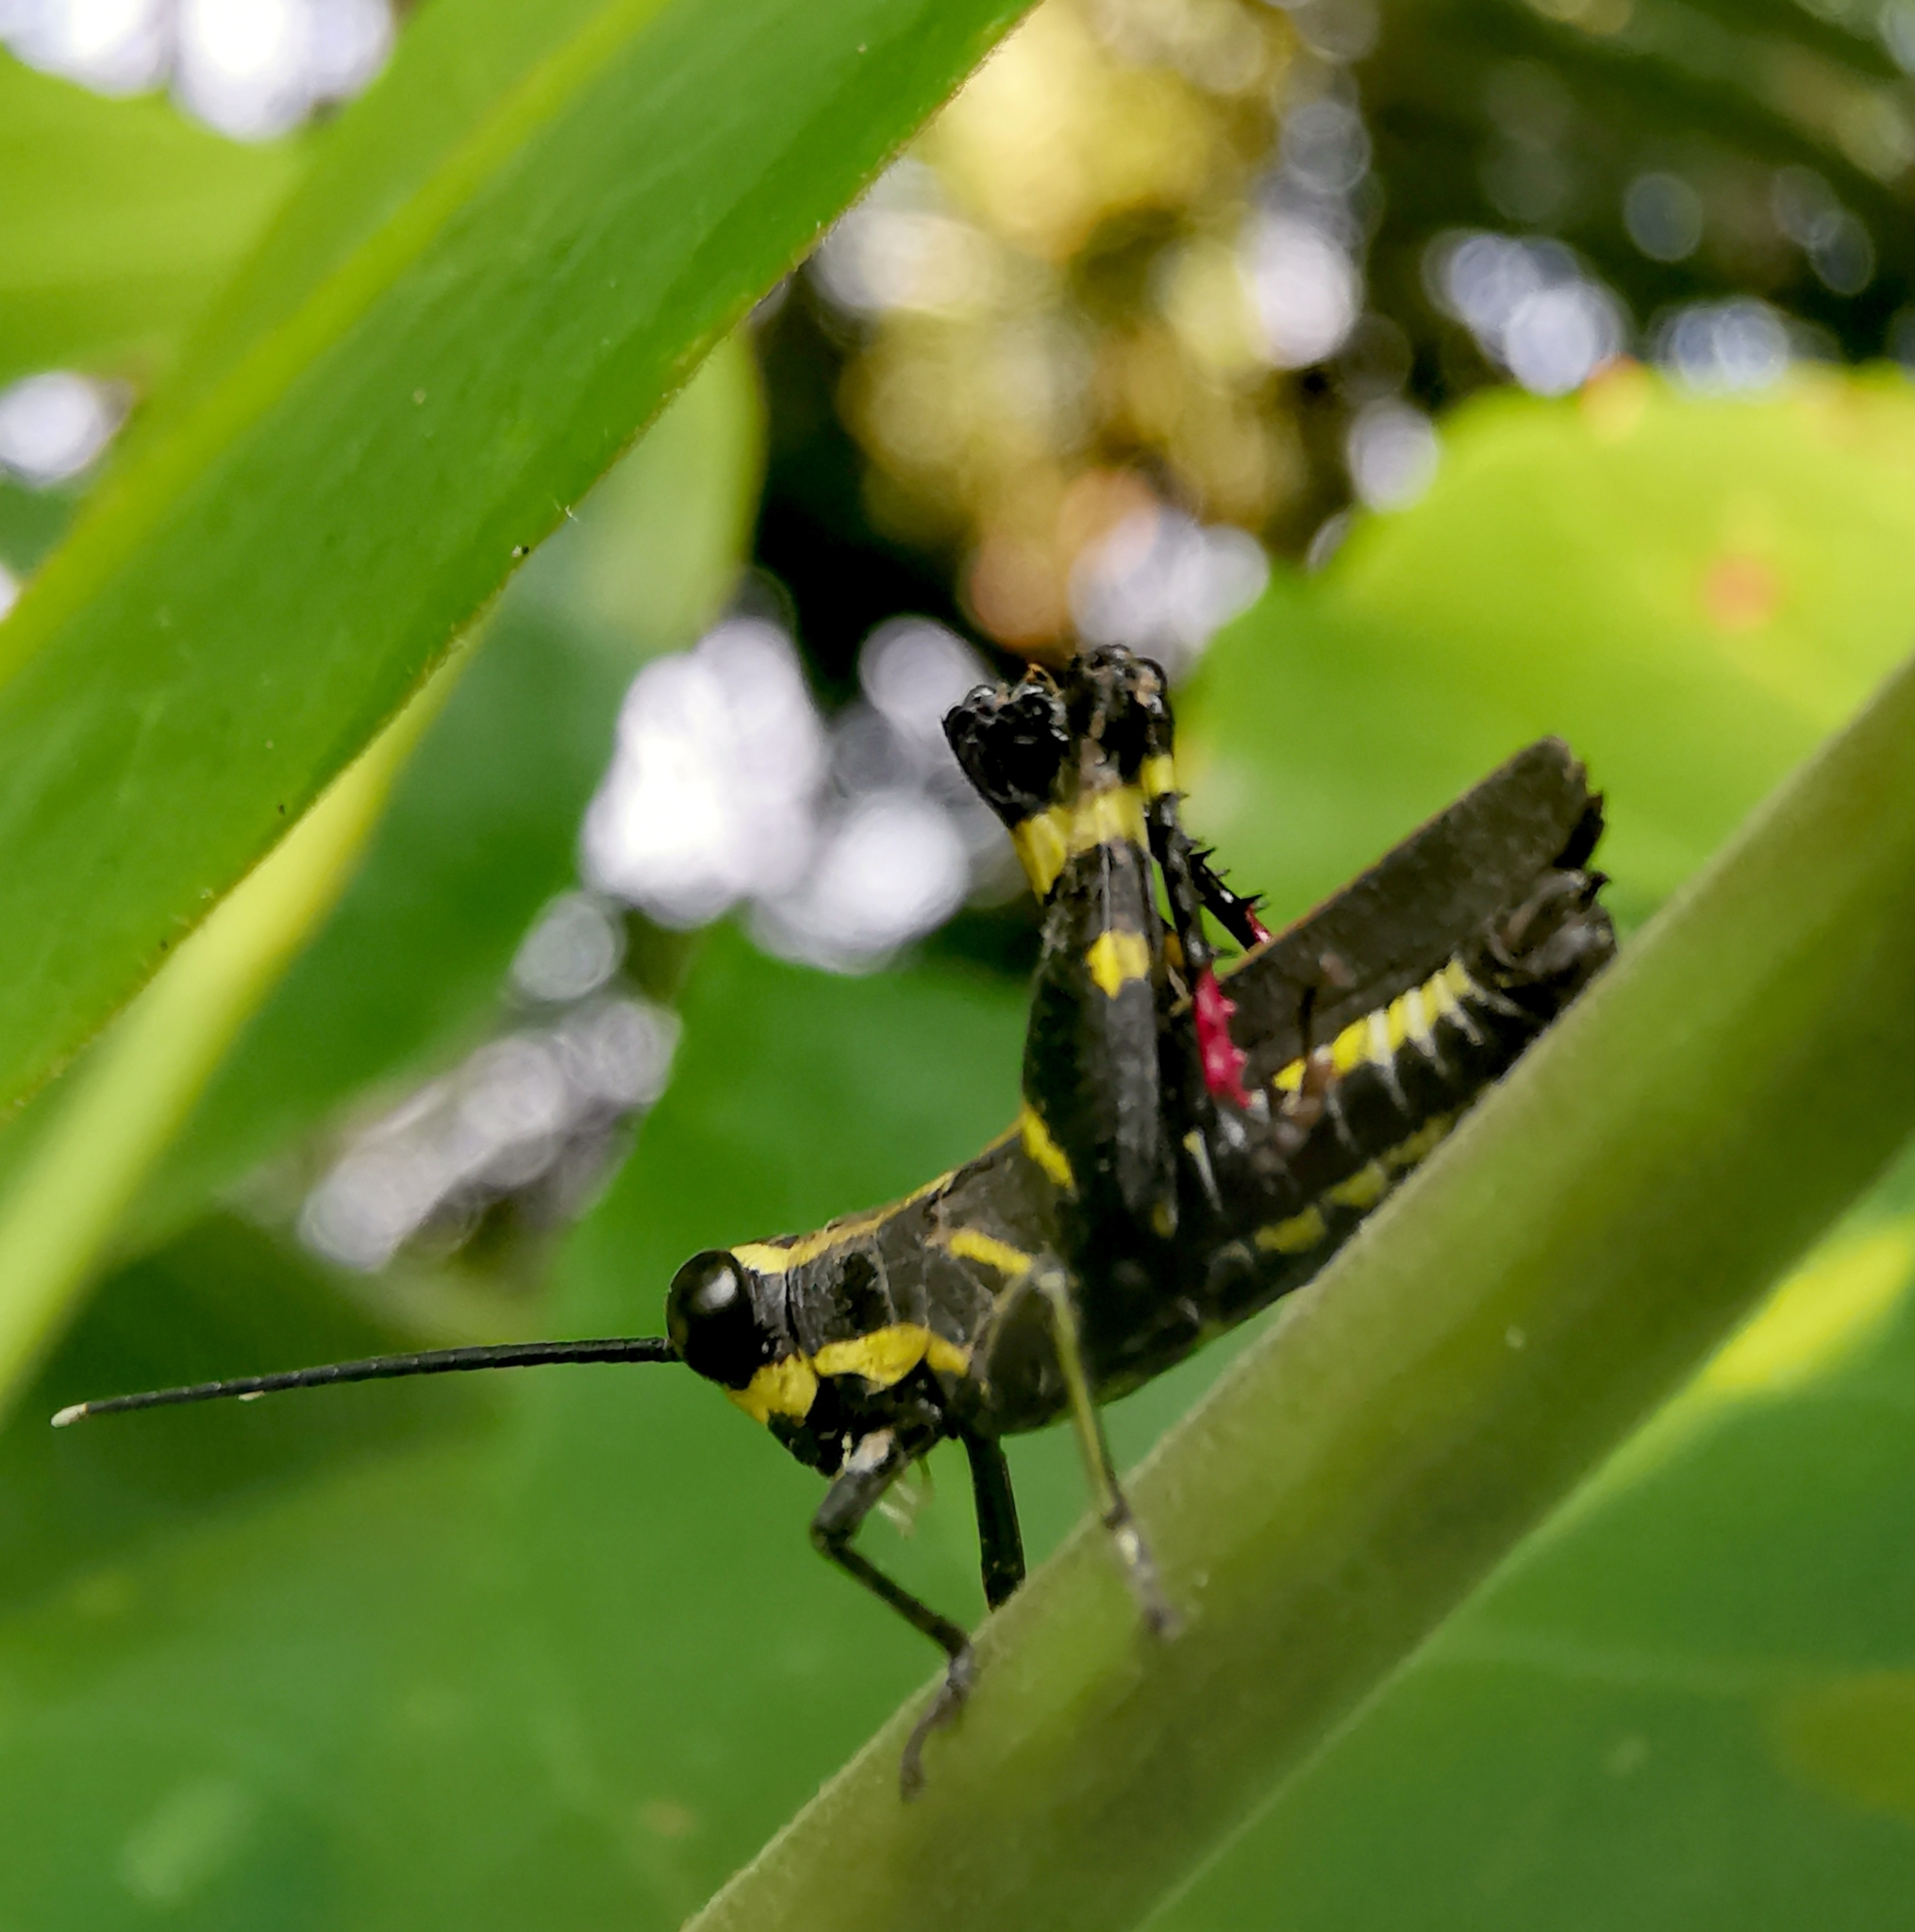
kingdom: Animalia
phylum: Arthropoda
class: Insecta
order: Orthoptera
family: Acrididae
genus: Traulia
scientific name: Traulia azureipennis
